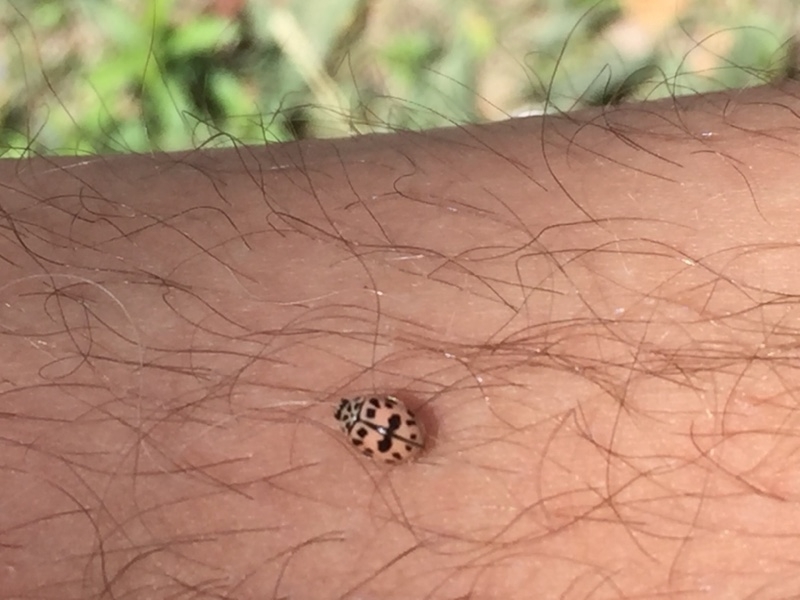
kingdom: Animalia
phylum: Arthropoda
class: Insecta
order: Coleoptera
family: Coccinellidae
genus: Oenopia
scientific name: Oenopia conglobata
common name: Ladybird beetle
